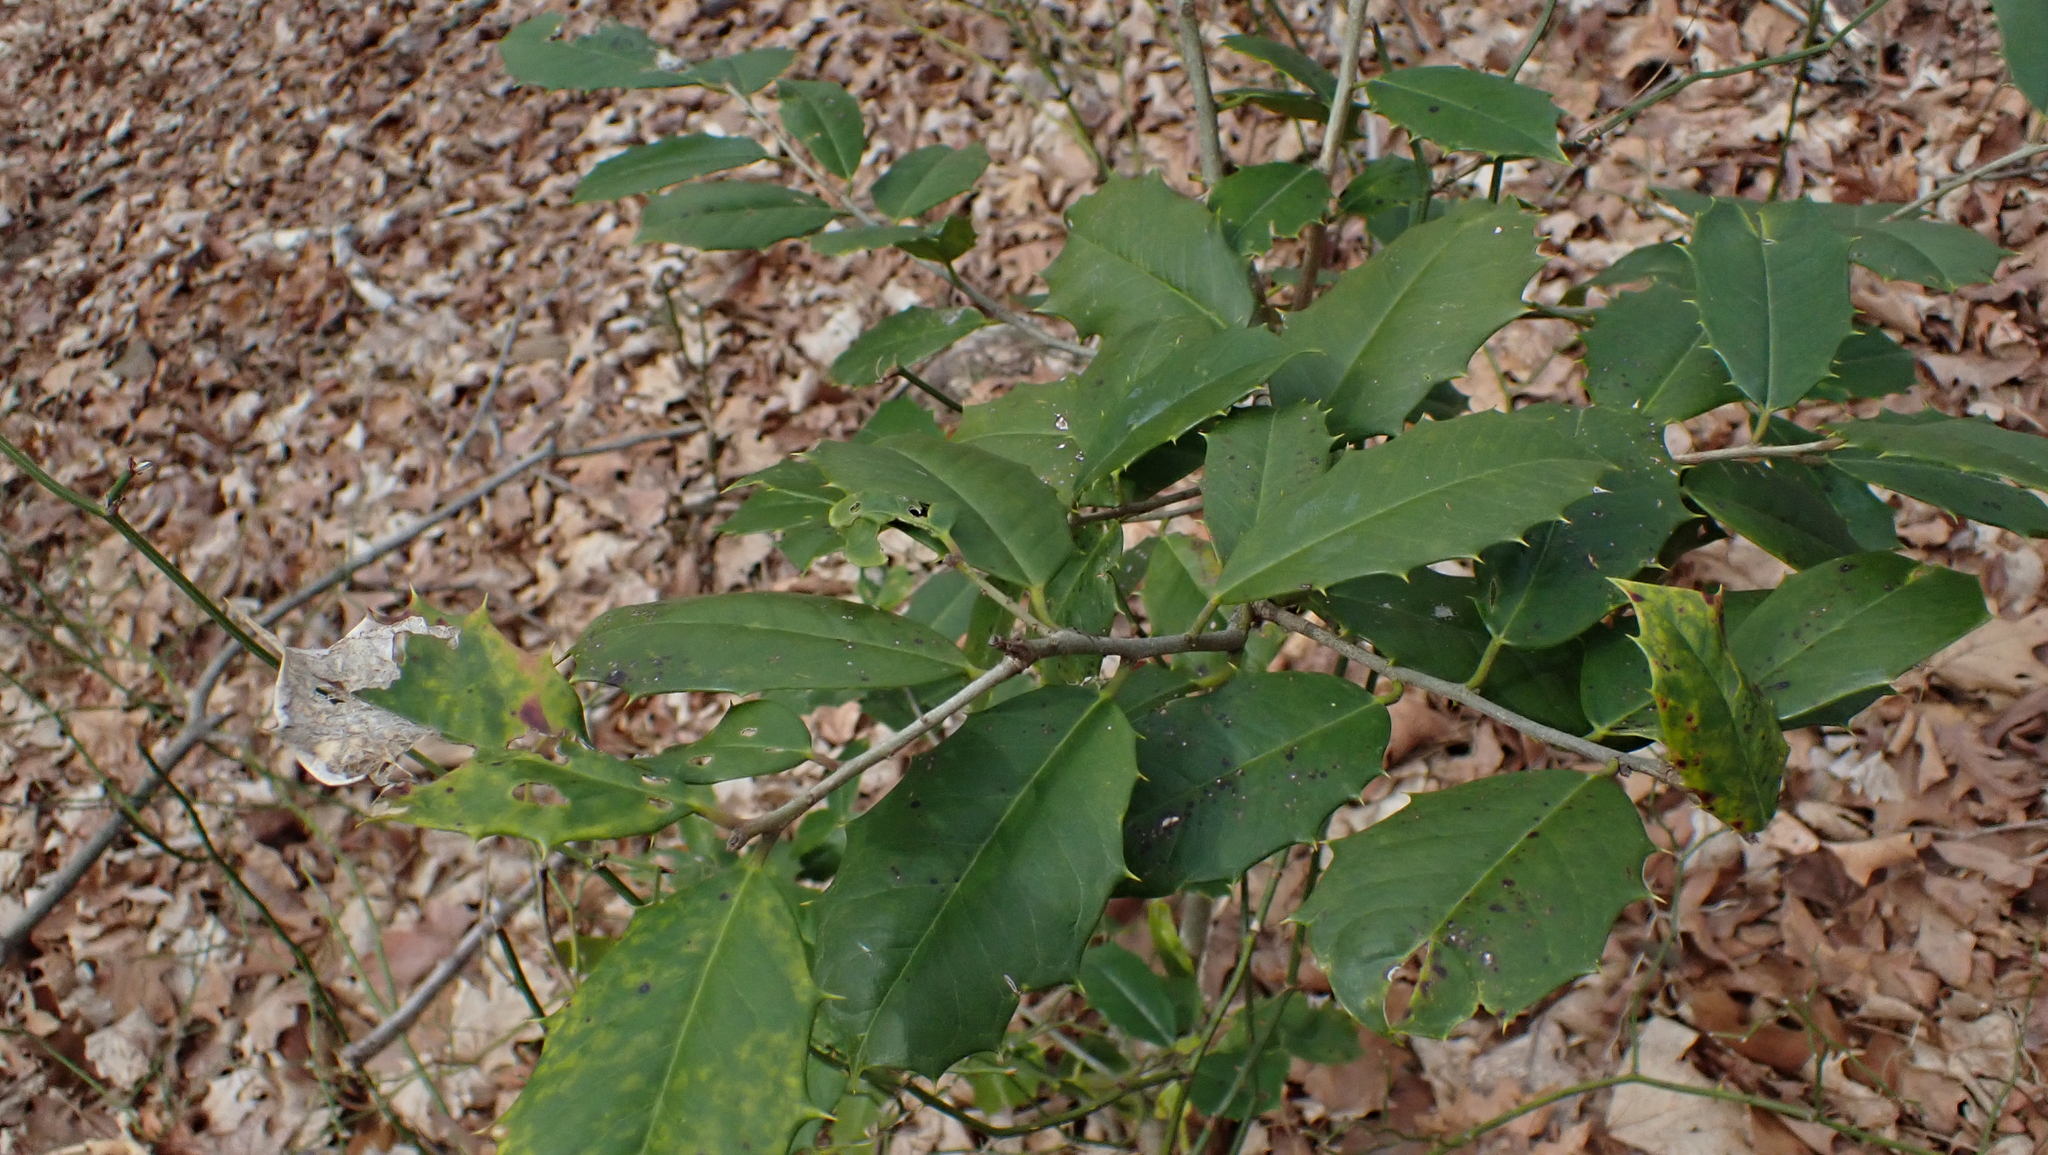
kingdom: Plantae
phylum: Tracheophyta
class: Magnoliopsida
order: Aquifoliales
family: Aquifoliaceae
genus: Ilex
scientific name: Ilex opaca
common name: American holly
